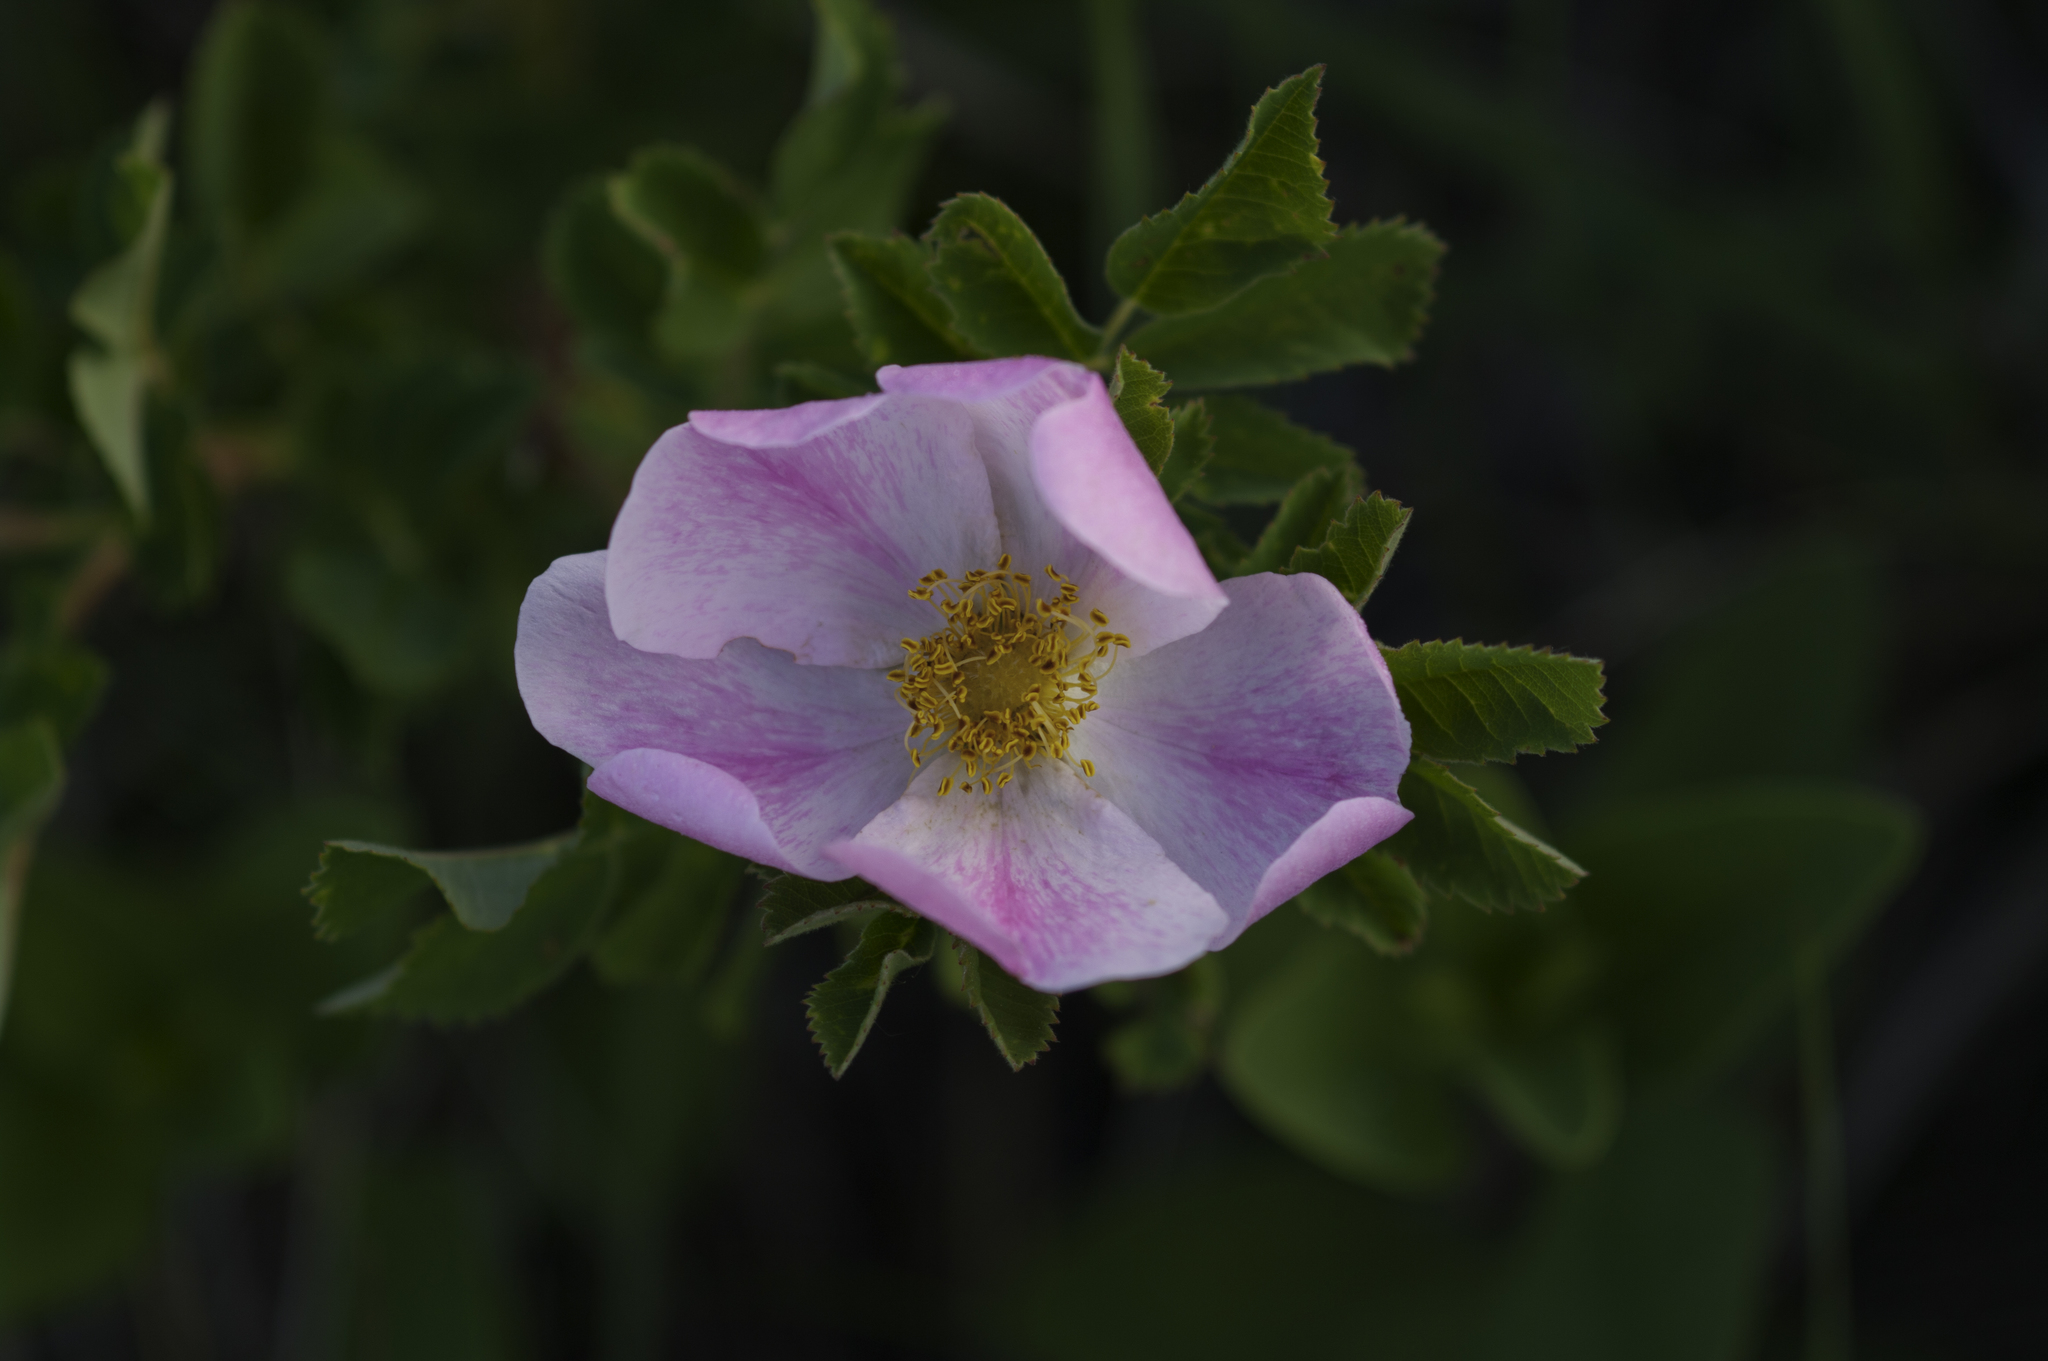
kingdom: Plantae
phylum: Tracheophyta
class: Magnoliopsida
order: Rosales
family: Rosaceae
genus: Rosa
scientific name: Rosa arkansana
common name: Prairie rose
